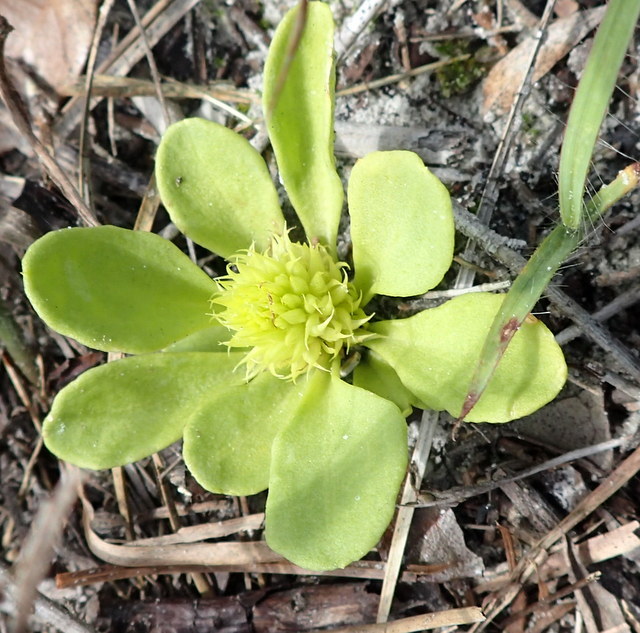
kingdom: Plantae
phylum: Tracheophyta
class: Magnoliopsida
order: Fabales
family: Polygalaceae
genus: Polygala
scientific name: Polygala nana
